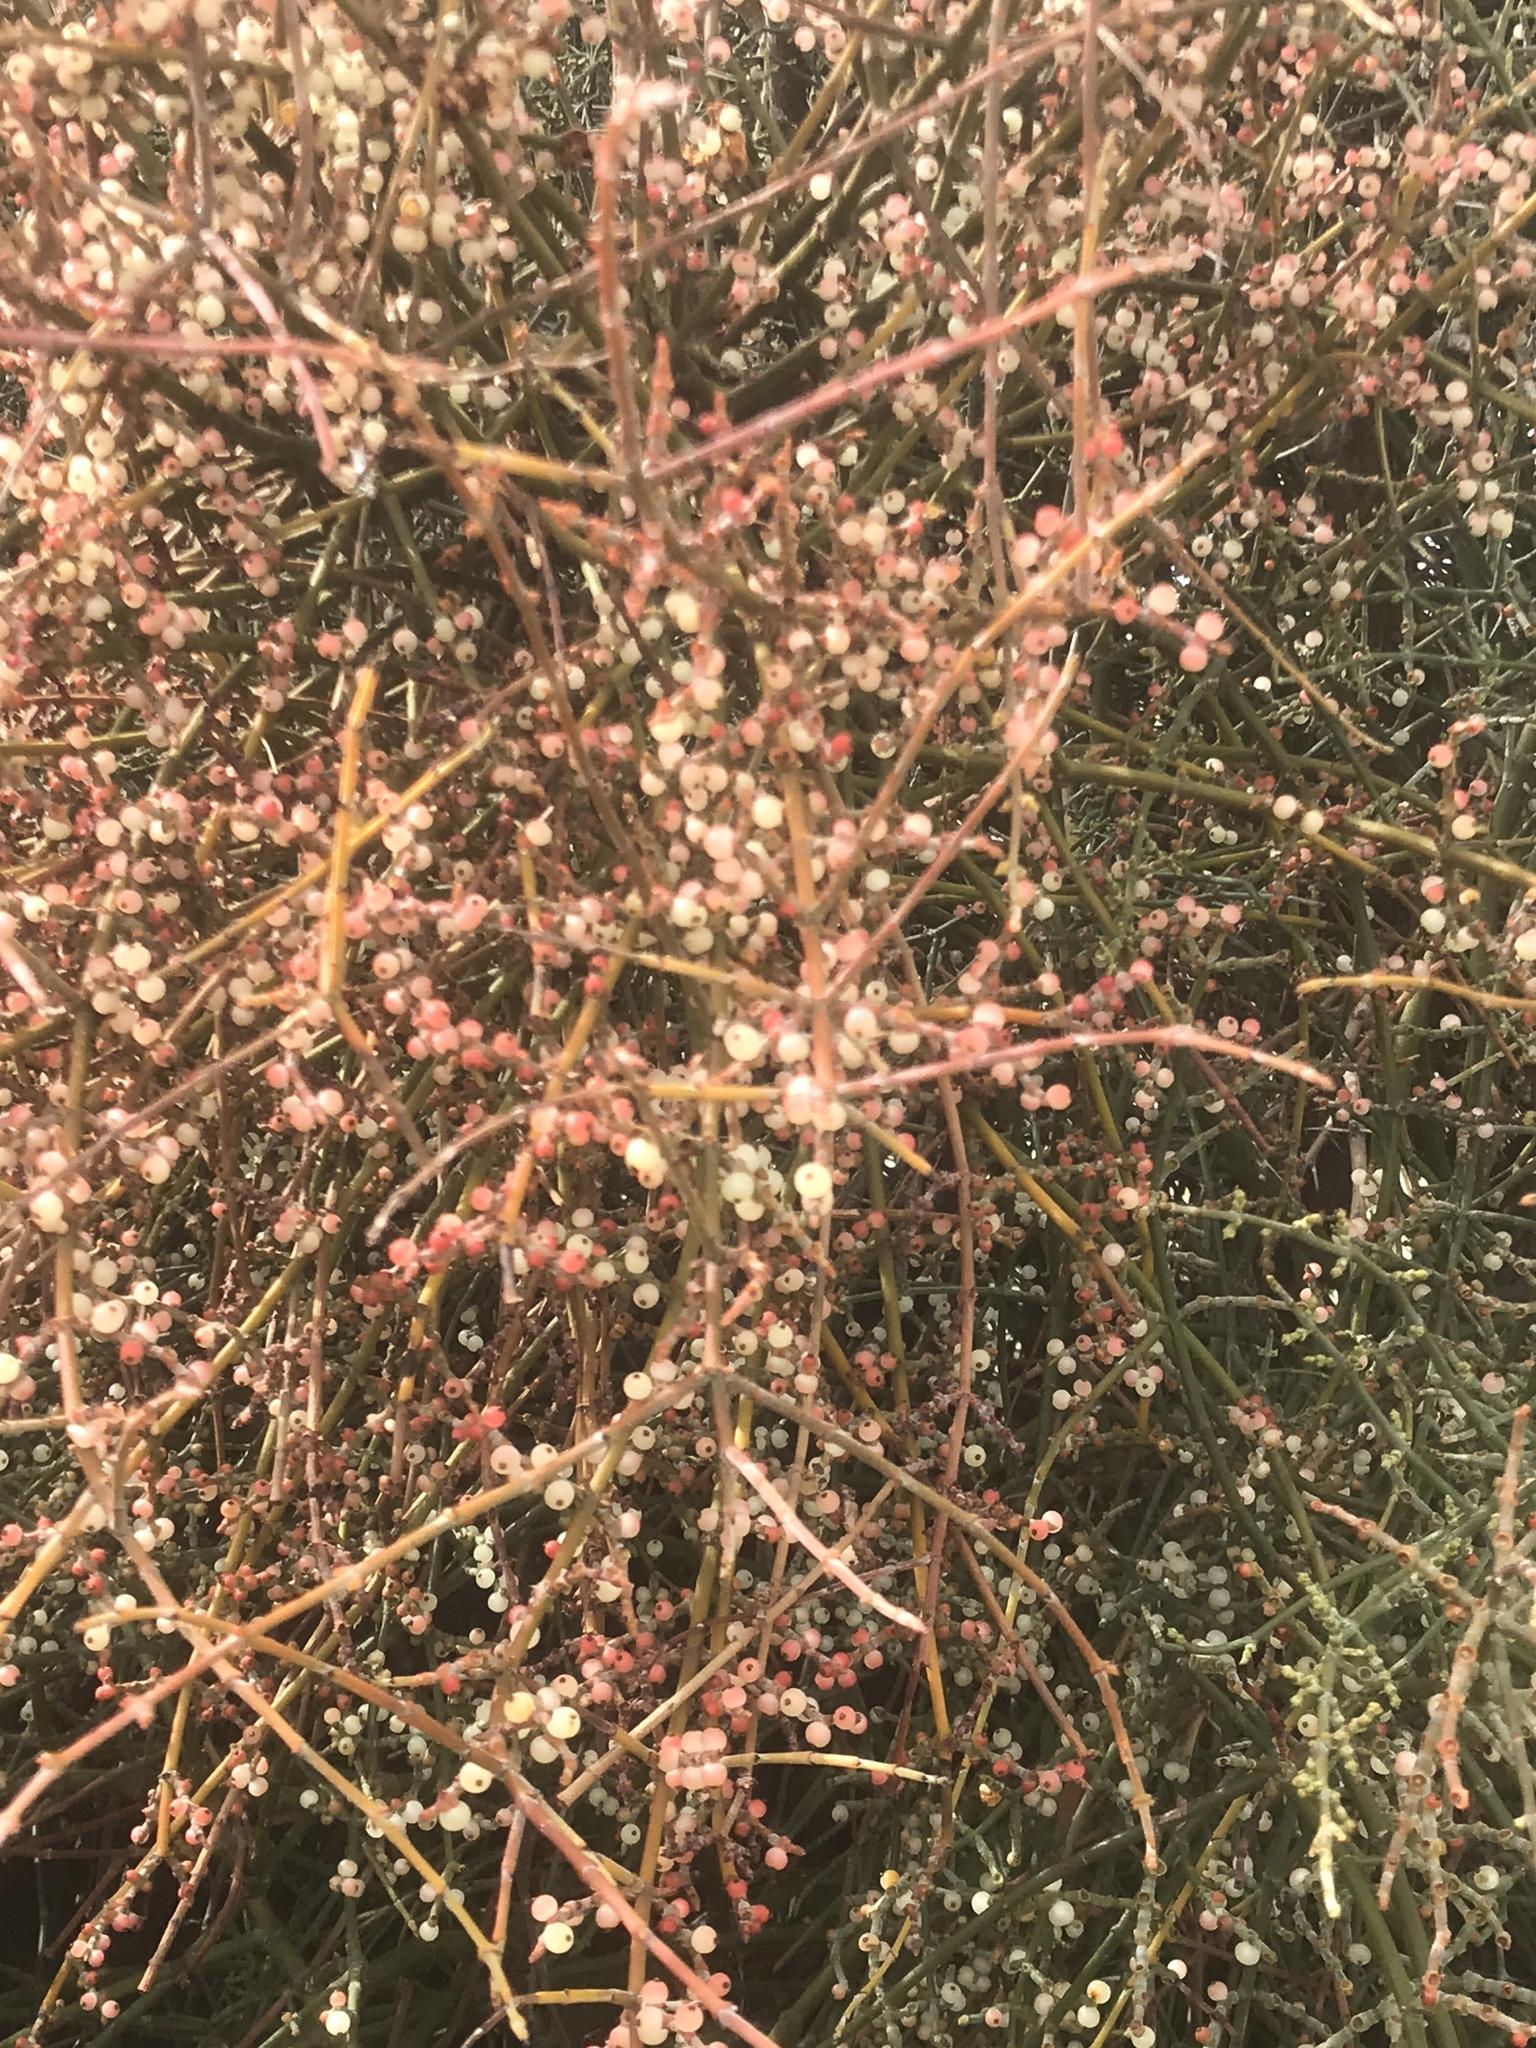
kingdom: Plantae
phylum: Tracheophyta
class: Magnoliopsida
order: Santalales
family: Viscaceae
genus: Phoradendron
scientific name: Phoradendron californicum
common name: Acacia mistletoe
